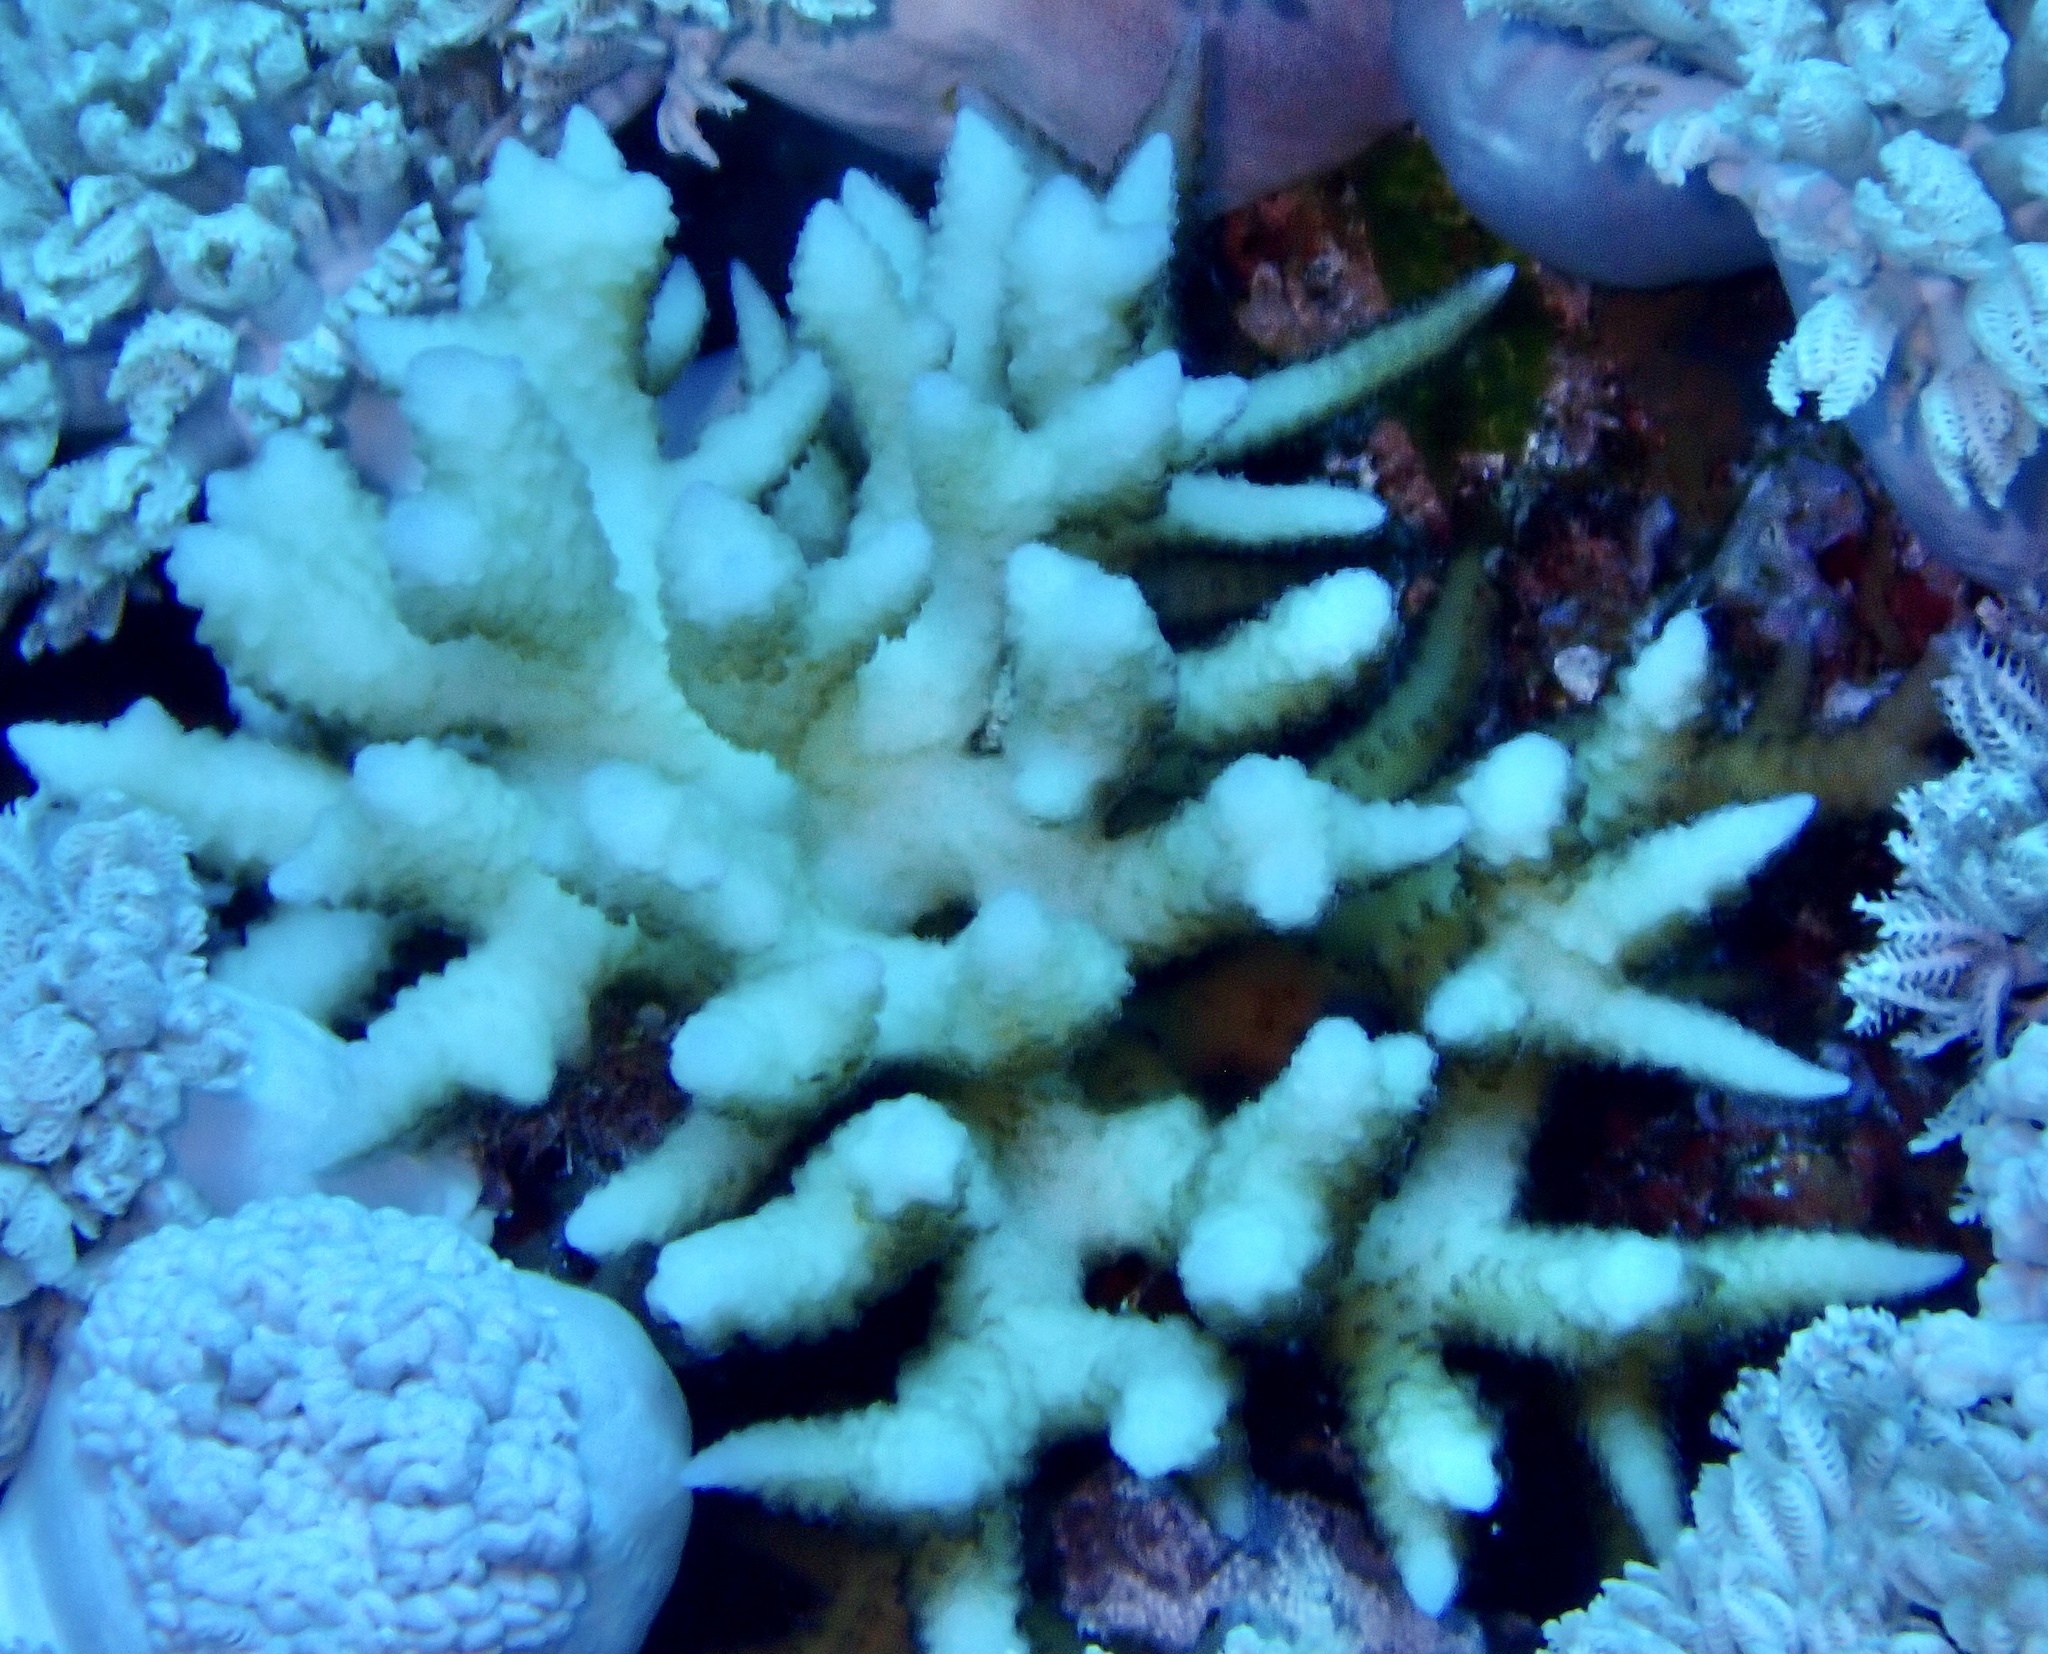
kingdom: Animalia
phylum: Cnidaria
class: Anthozoa
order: Scleractinia
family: Pocilloporidae
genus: Seriatopora
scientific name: Seriatopora hystrix
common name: Bush coral
